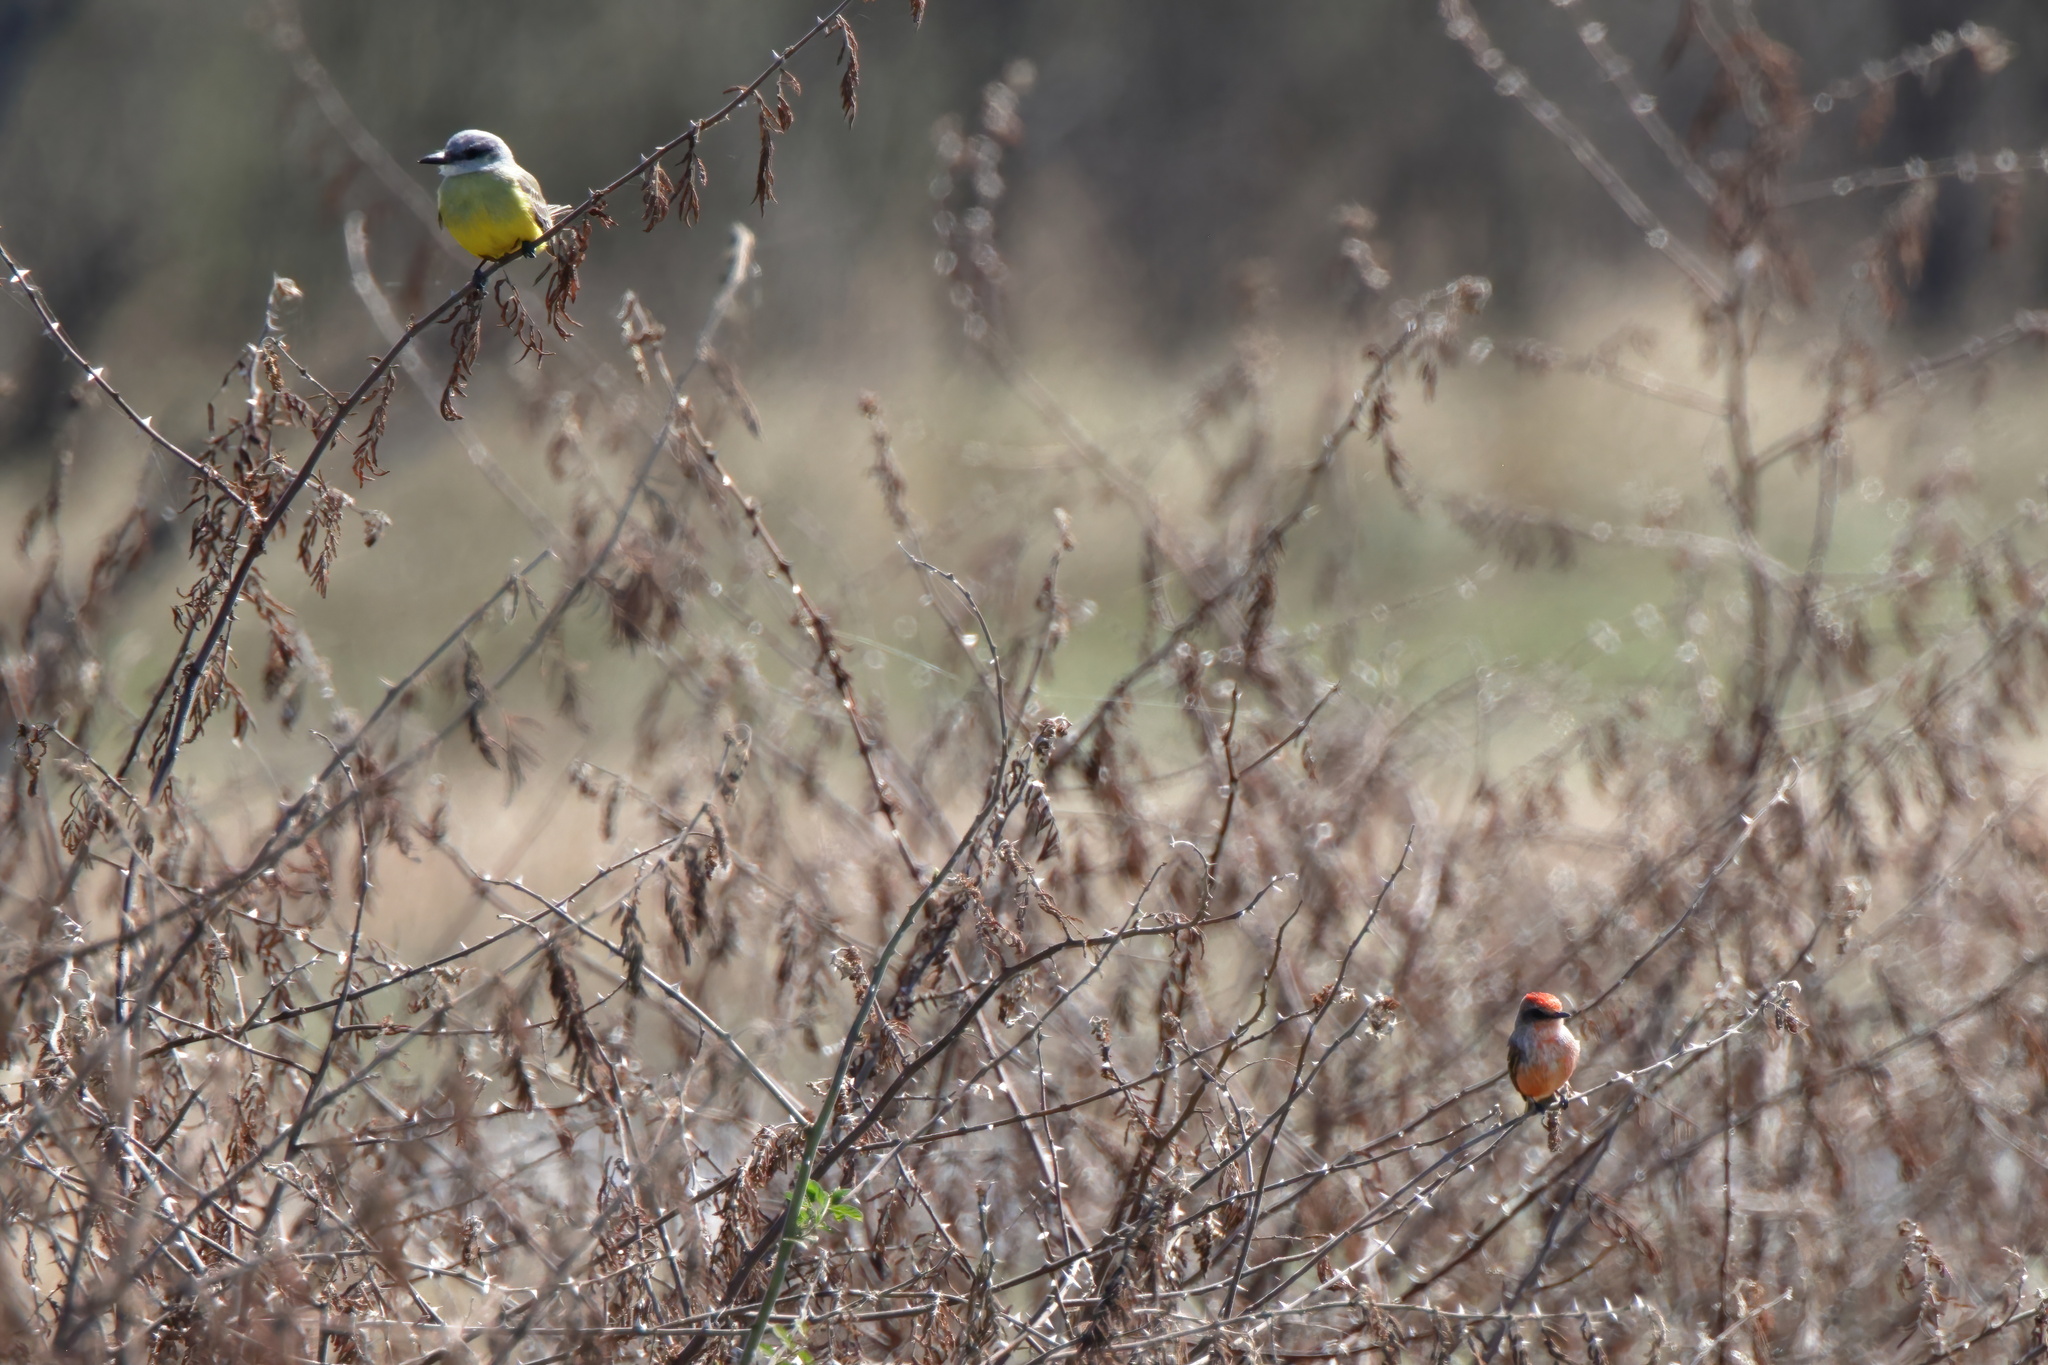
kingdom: Animalia
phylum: Chordata
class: Aves
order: Passeriformes
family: Tyrannidae
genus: Pyrocephalus
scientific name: Pyrocephalus rubinus
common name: Vermilion flycatcher
